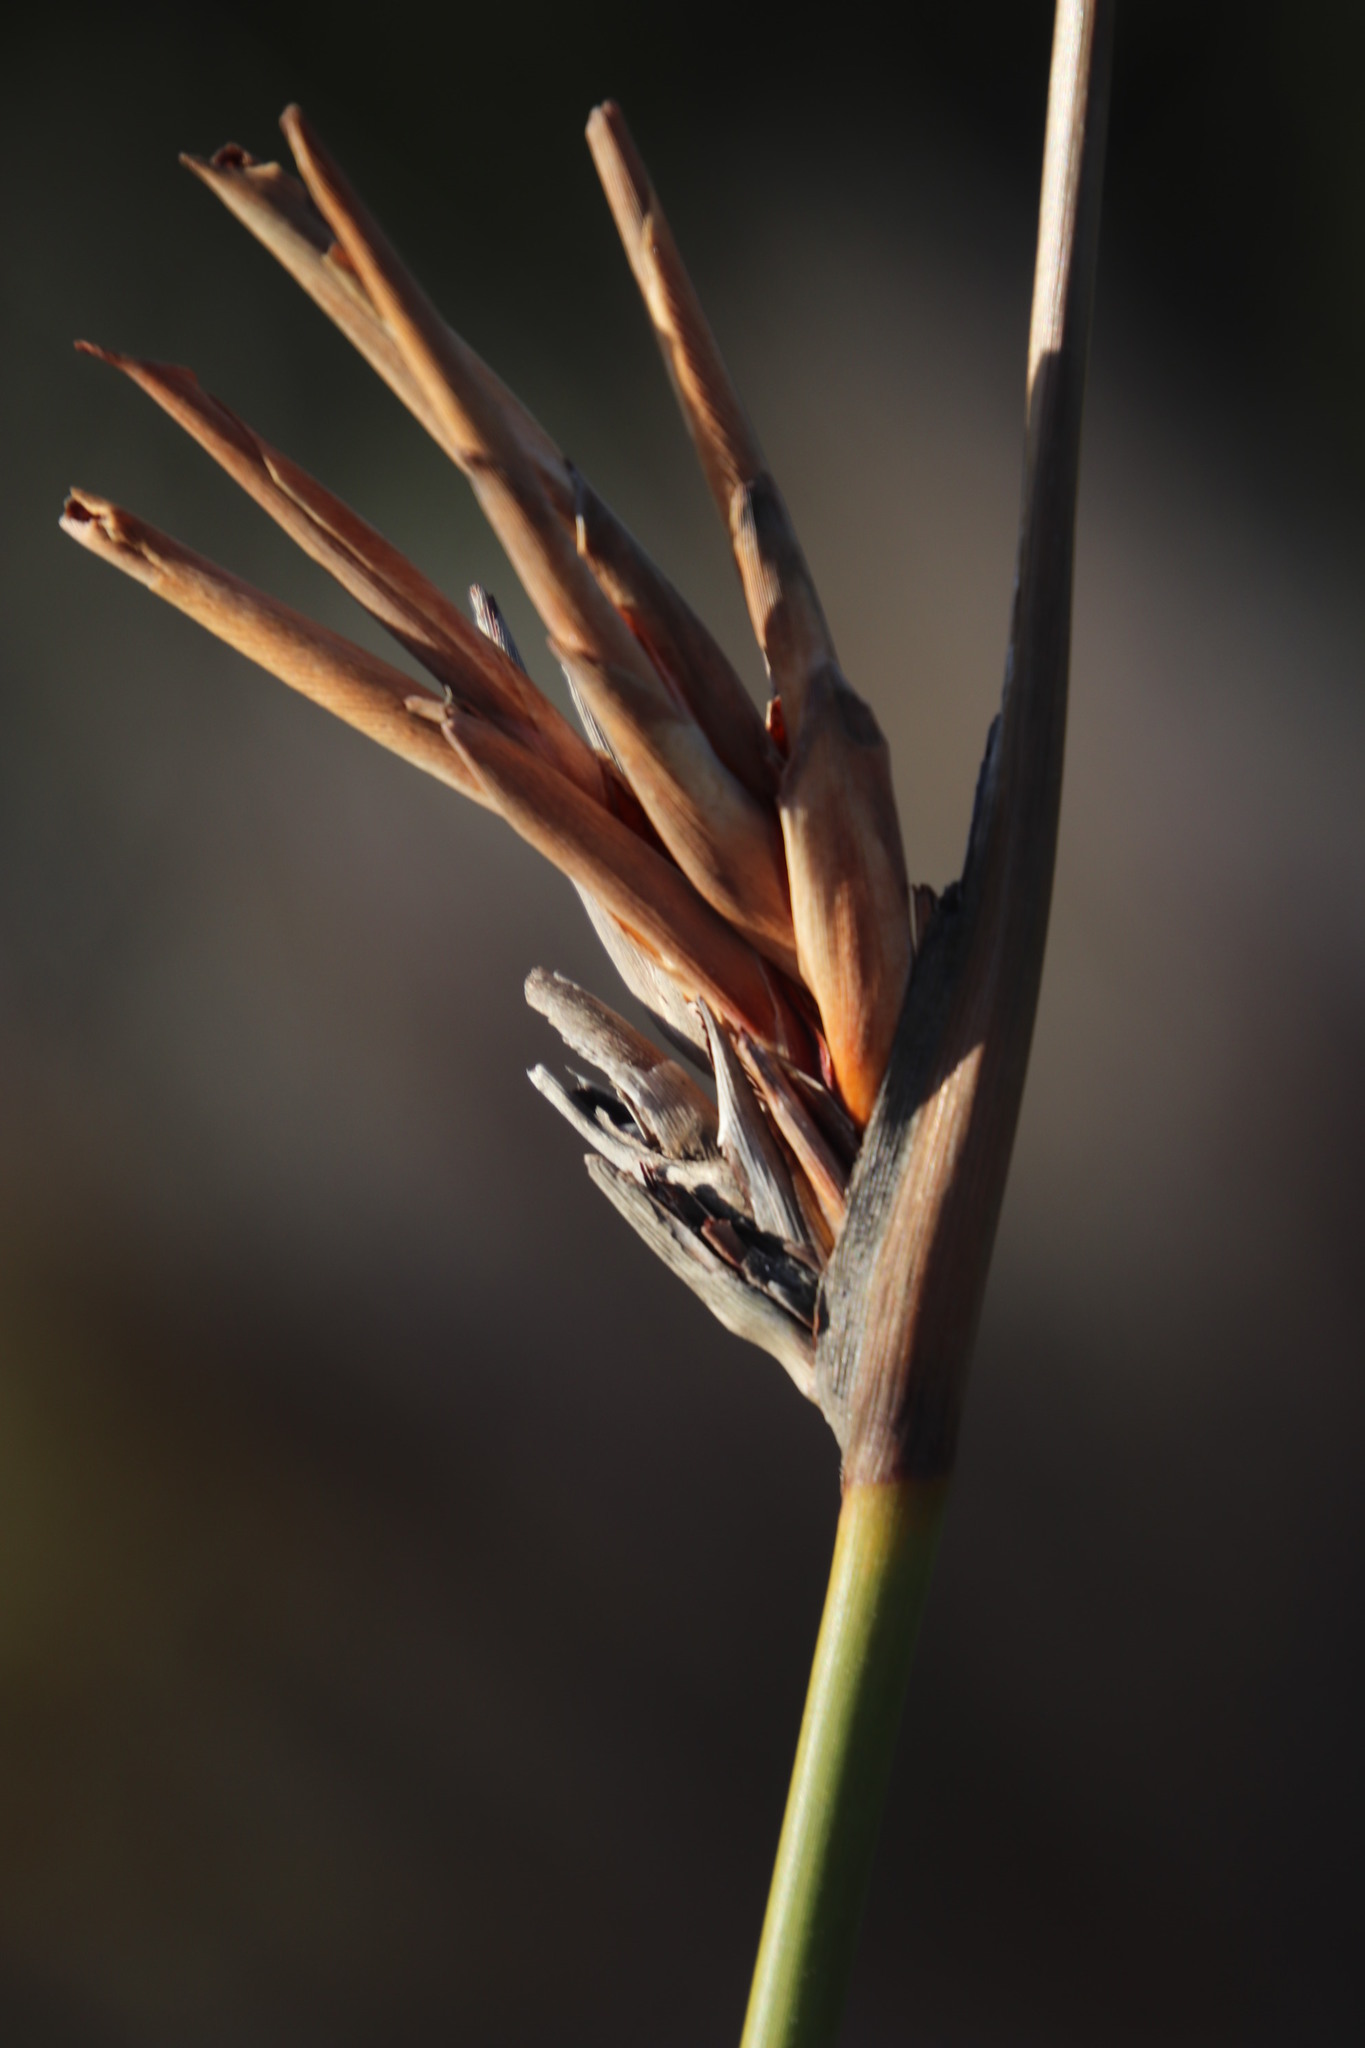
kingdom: Plantae
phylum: Tracheophyta
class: Liliopsida
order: Asparagales
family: Iridaceae
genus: Bobartia
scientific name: Bobartia indica
